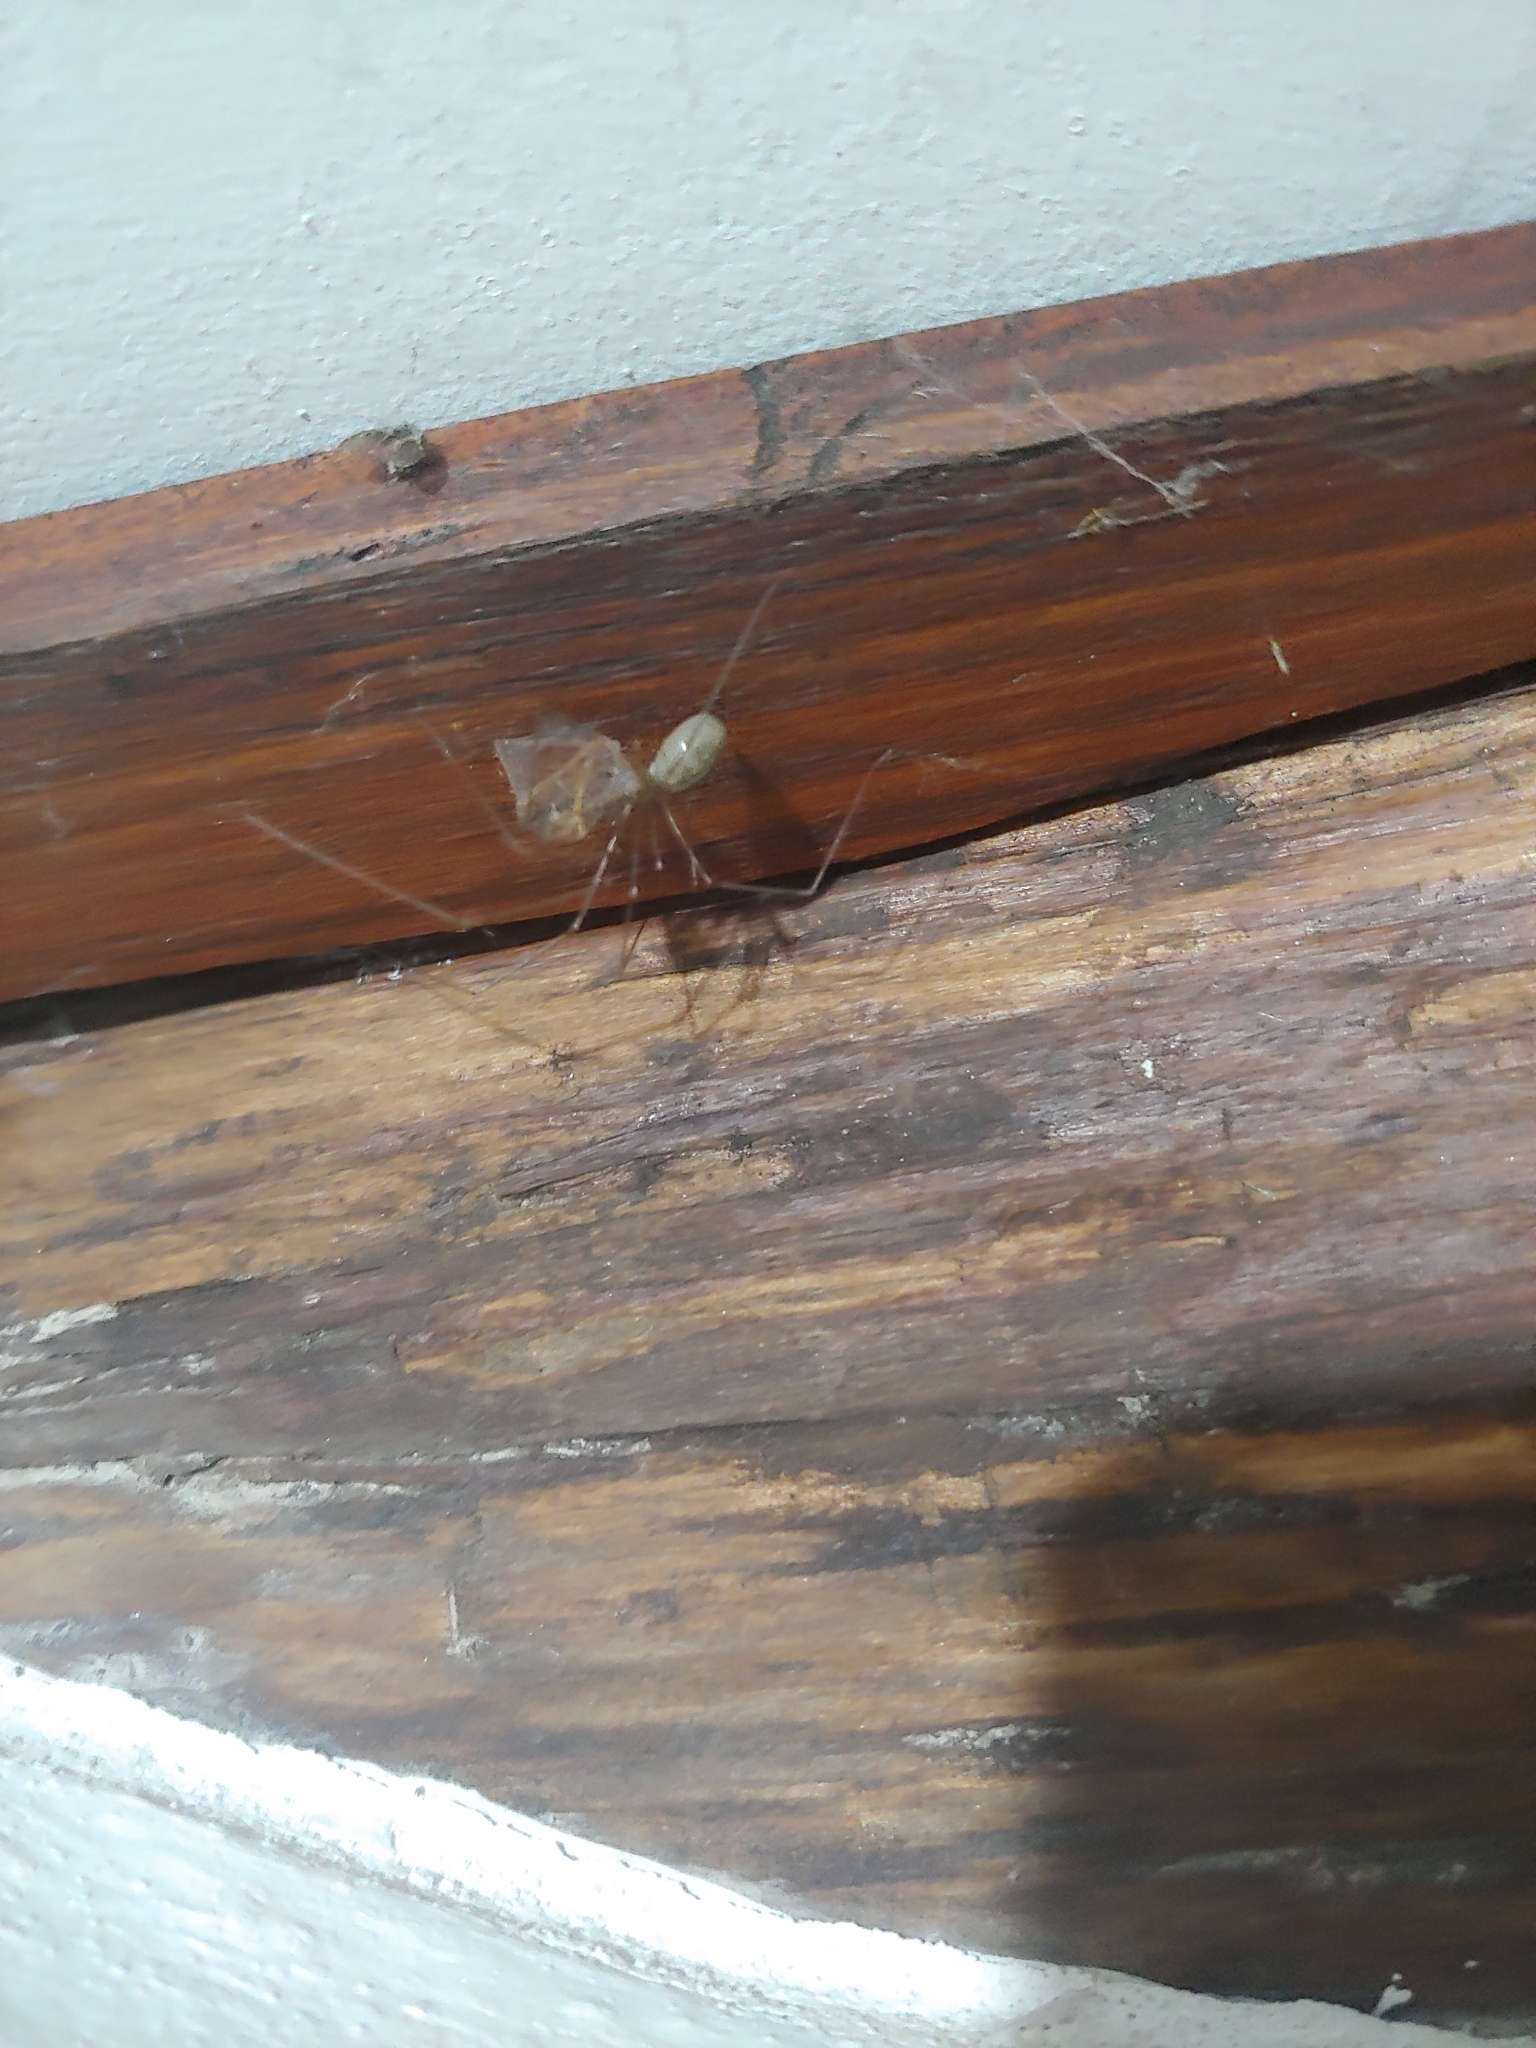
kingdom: Animalia
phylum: Arthropoda
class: Arachnida
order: Araneae
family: Pholcidae
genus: Pholcus
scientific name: Pholcus phalangioides
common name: Longbodied cellar spider
